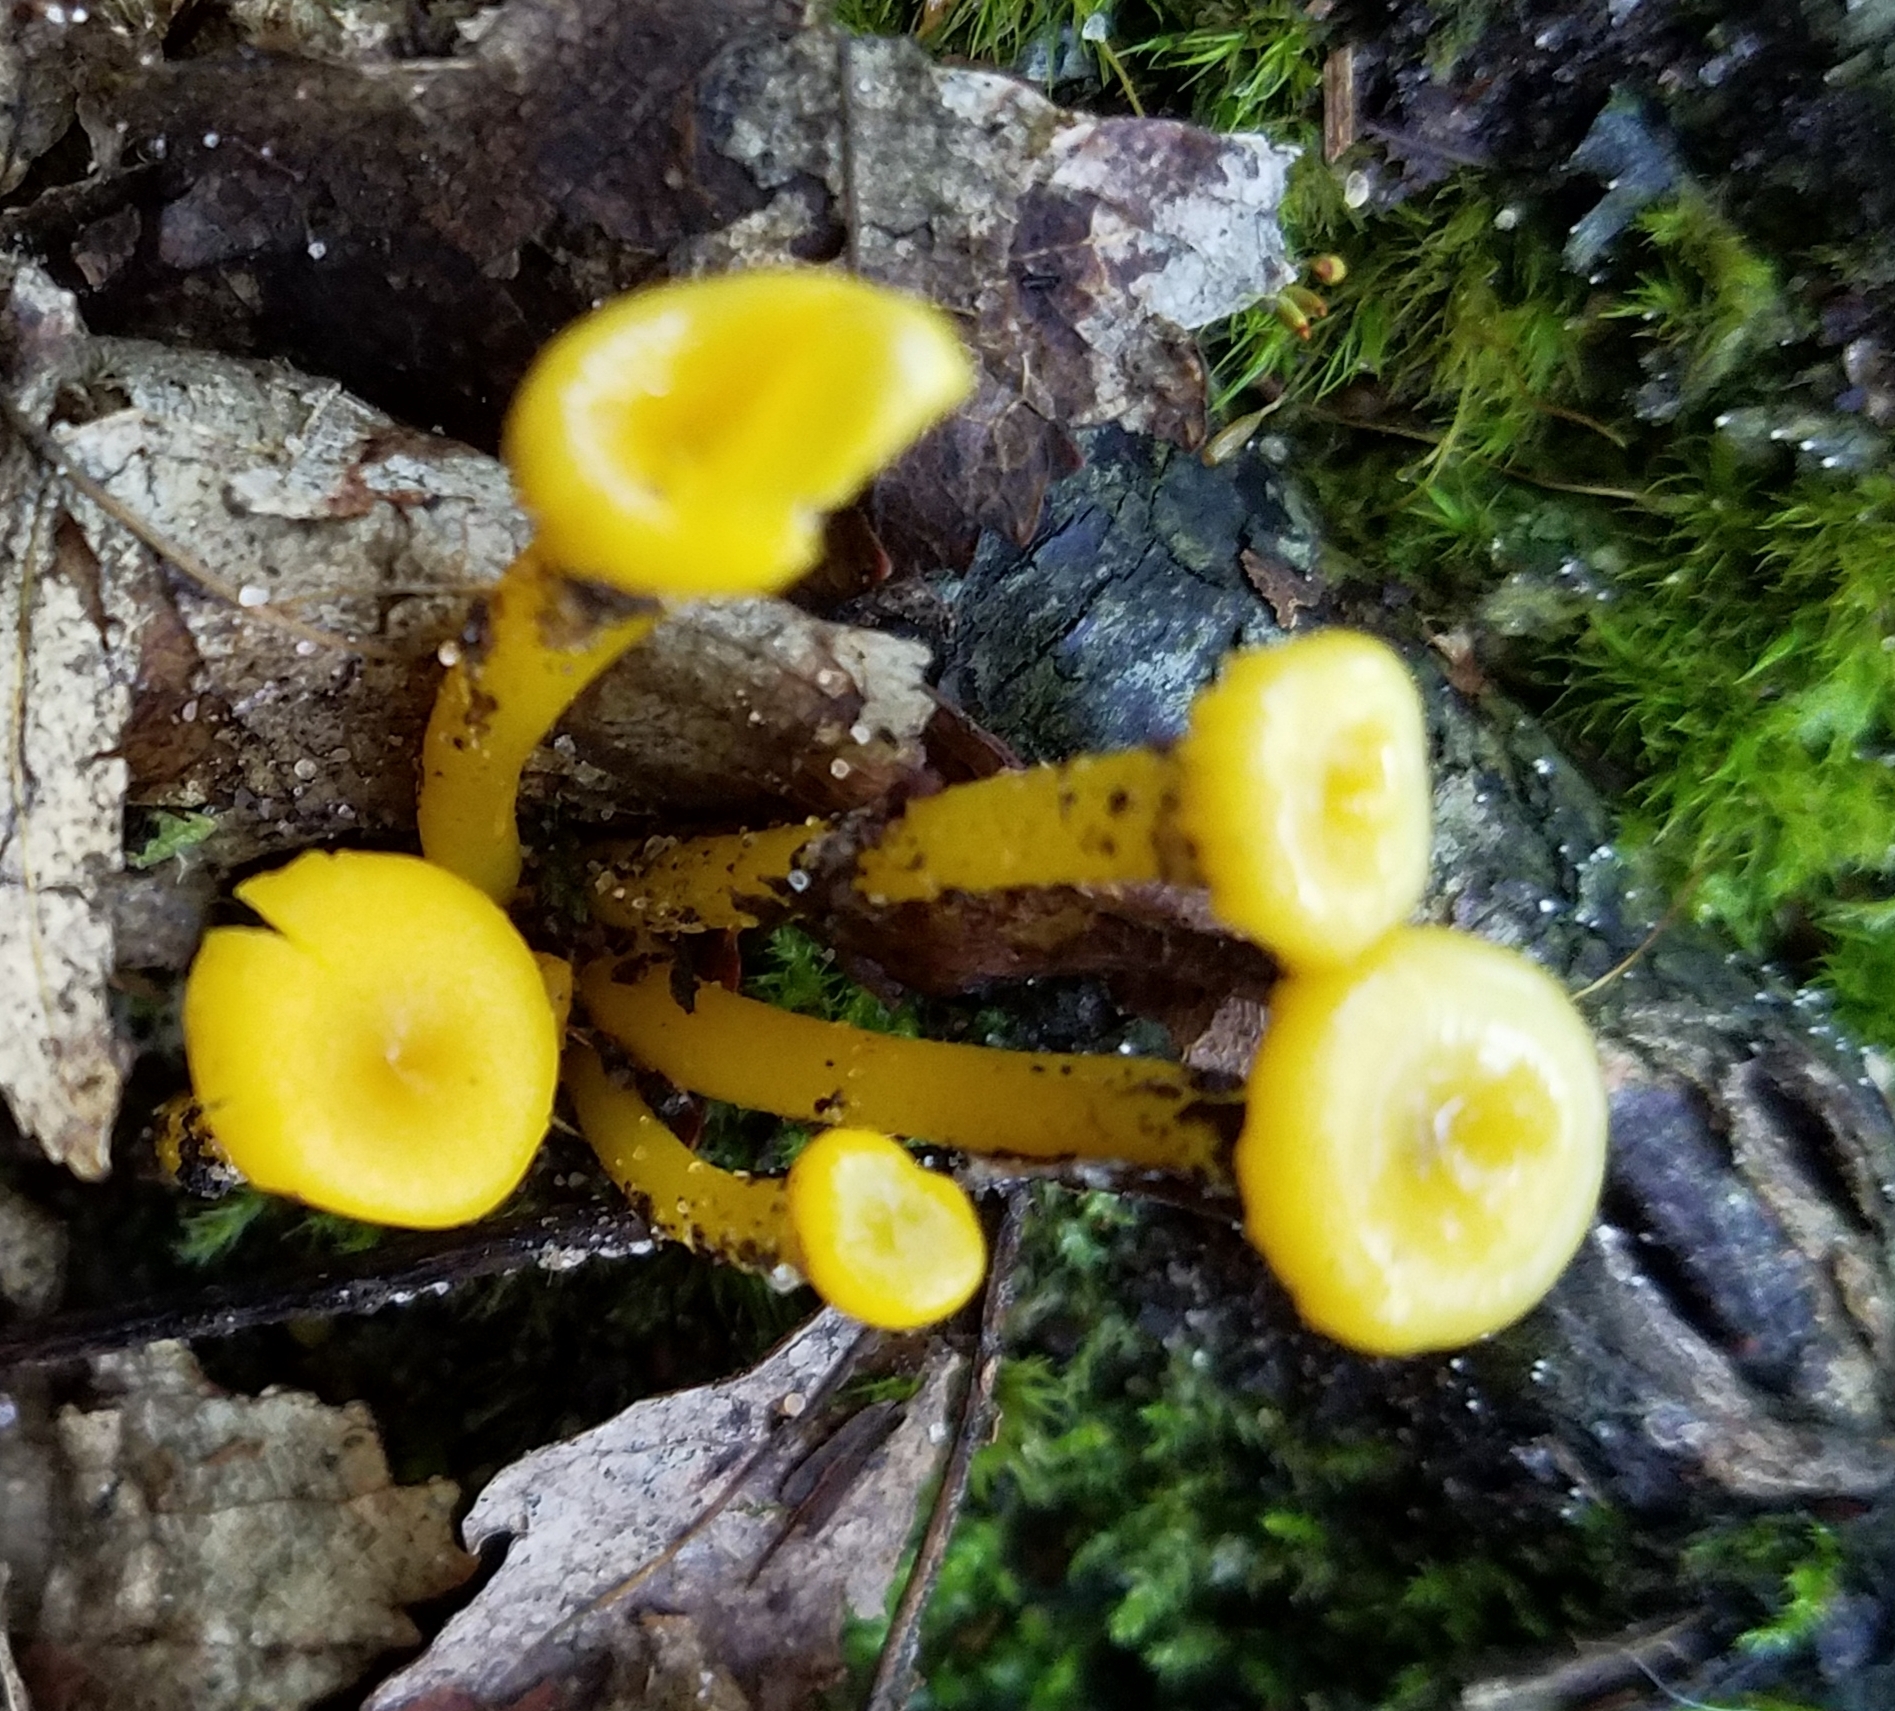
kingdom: Fungi
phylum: Basidiomycota
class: Agaricomycetes
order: Agaricales
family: Hygrophoraceae
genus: Gloioxanthomyces
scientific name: Gloioxanthomyces nitidus
